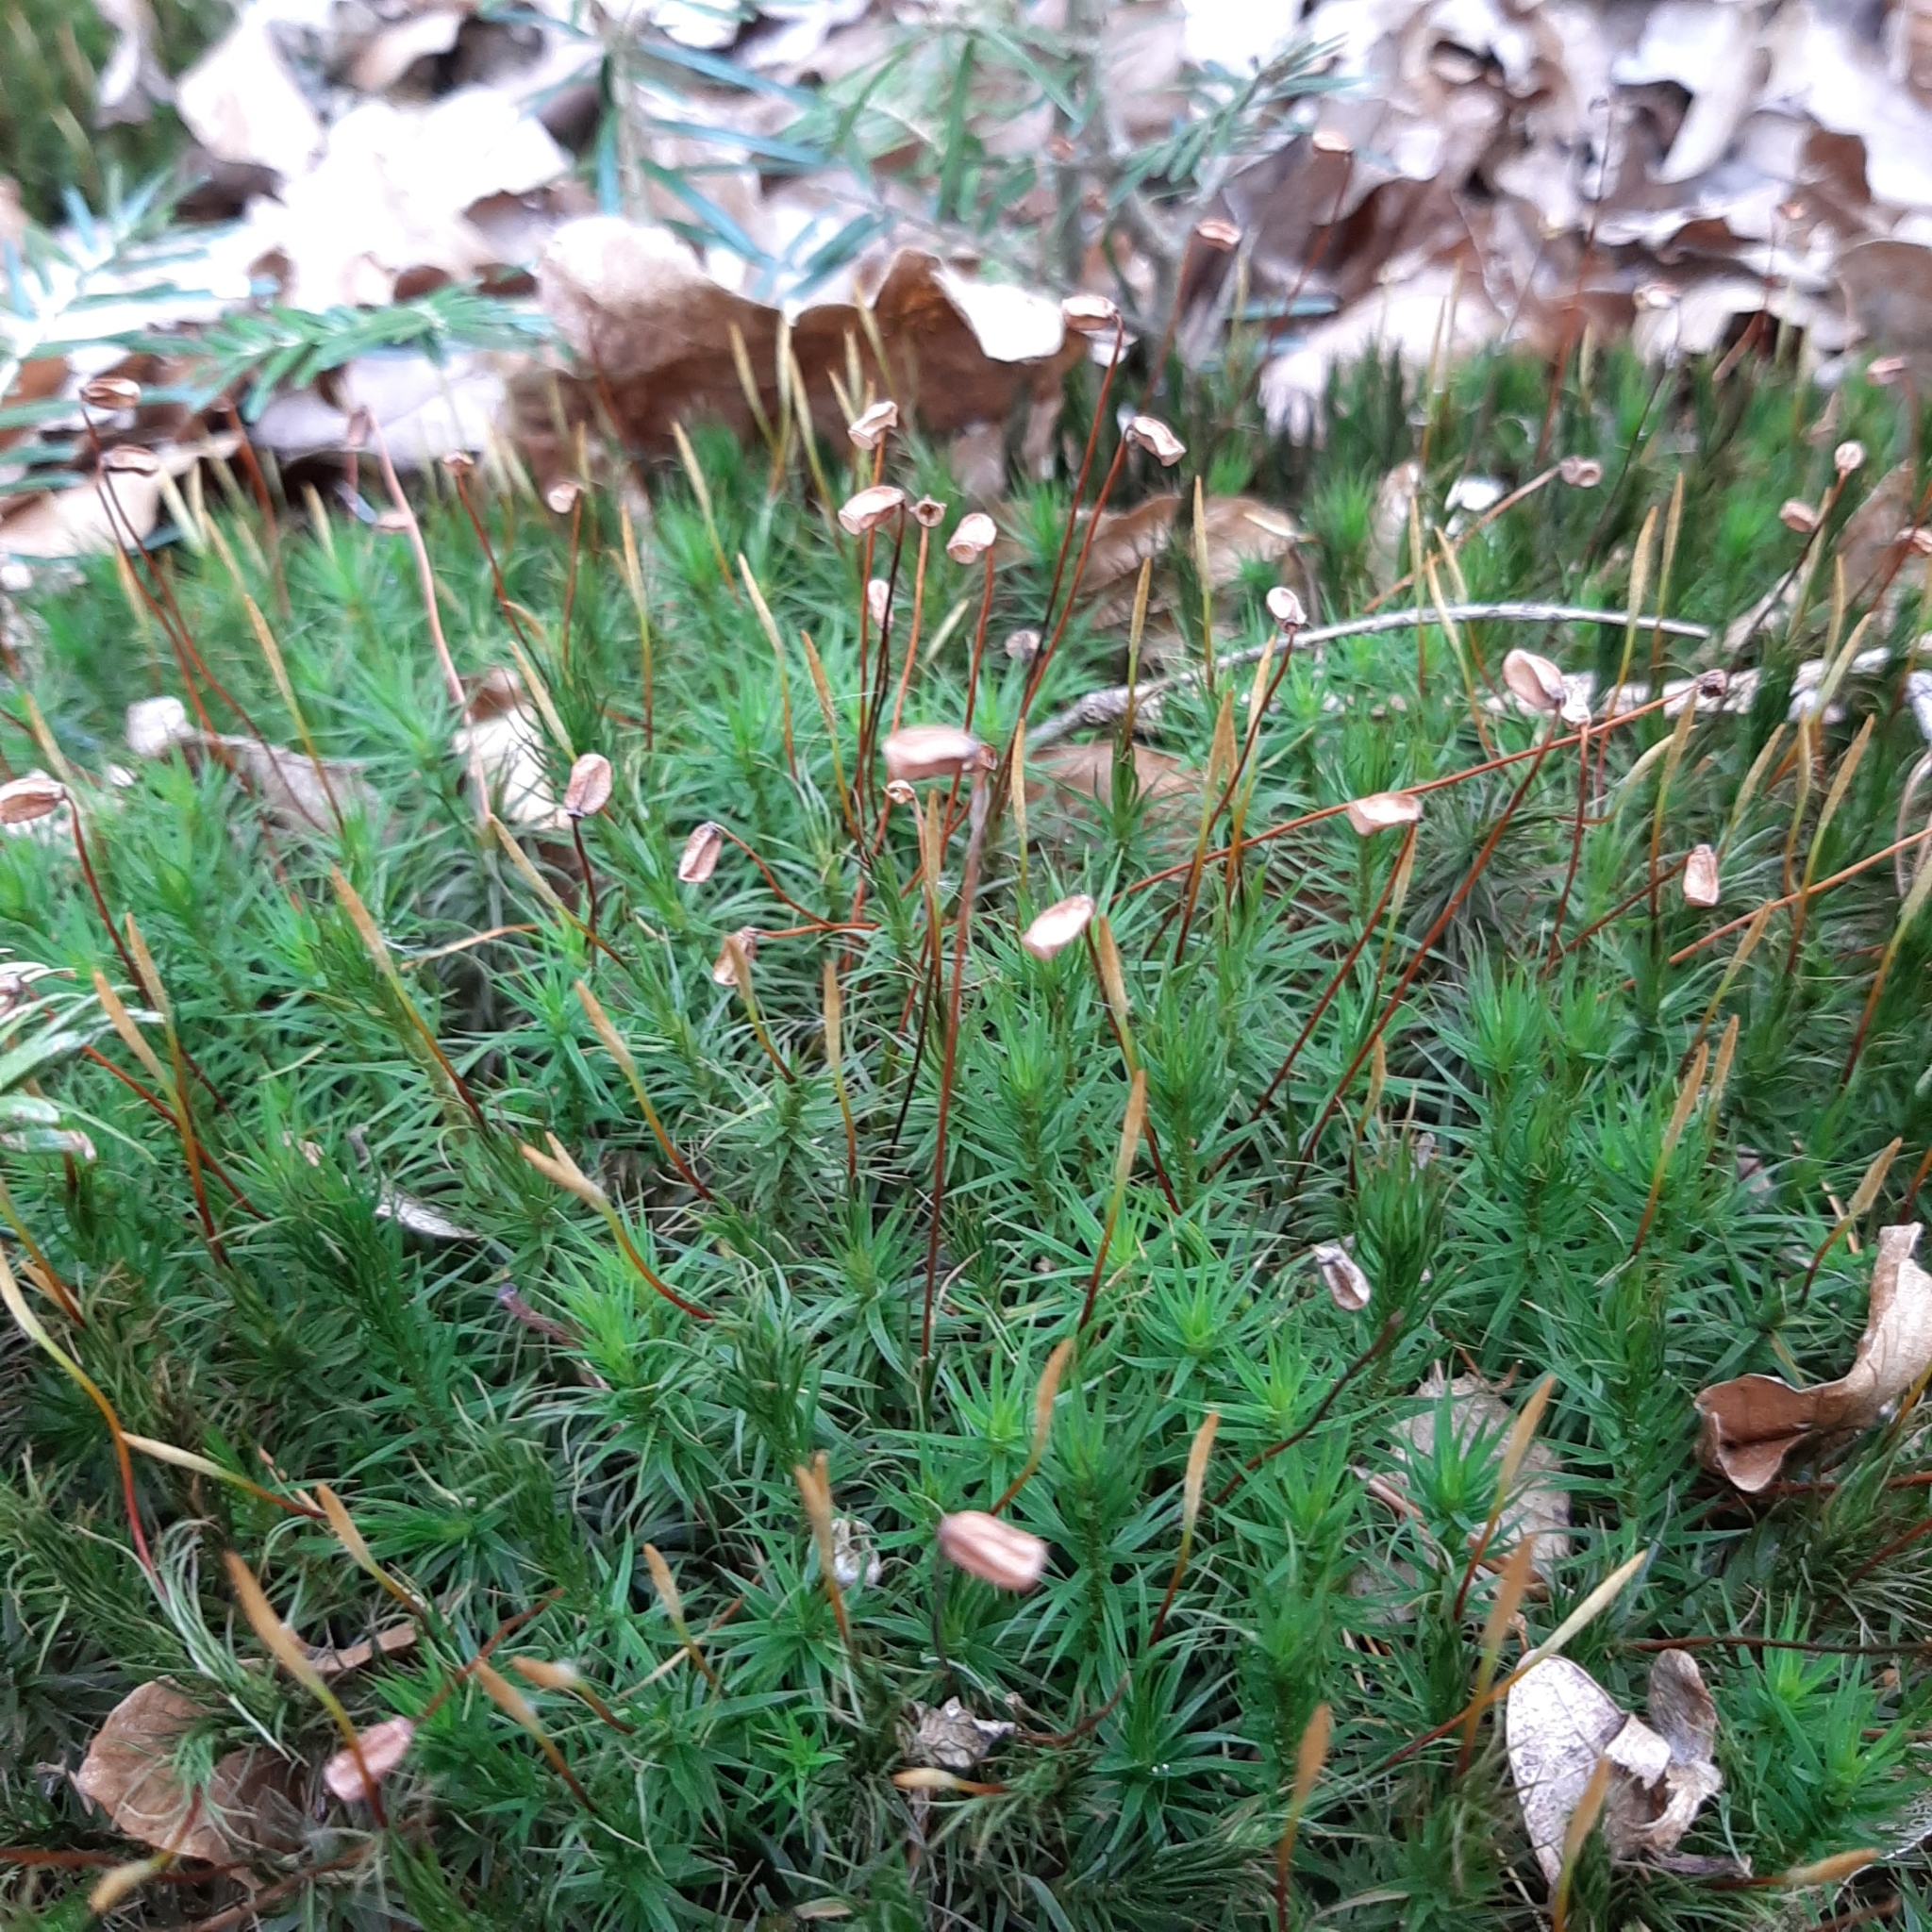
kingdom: Plantae
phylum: Bryophyta
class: Polytrichopsida
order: Polytrichales
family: Polytrichaceae
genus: Polytrichum
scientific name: Polytrichum formosum
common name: Bank haircap moss
